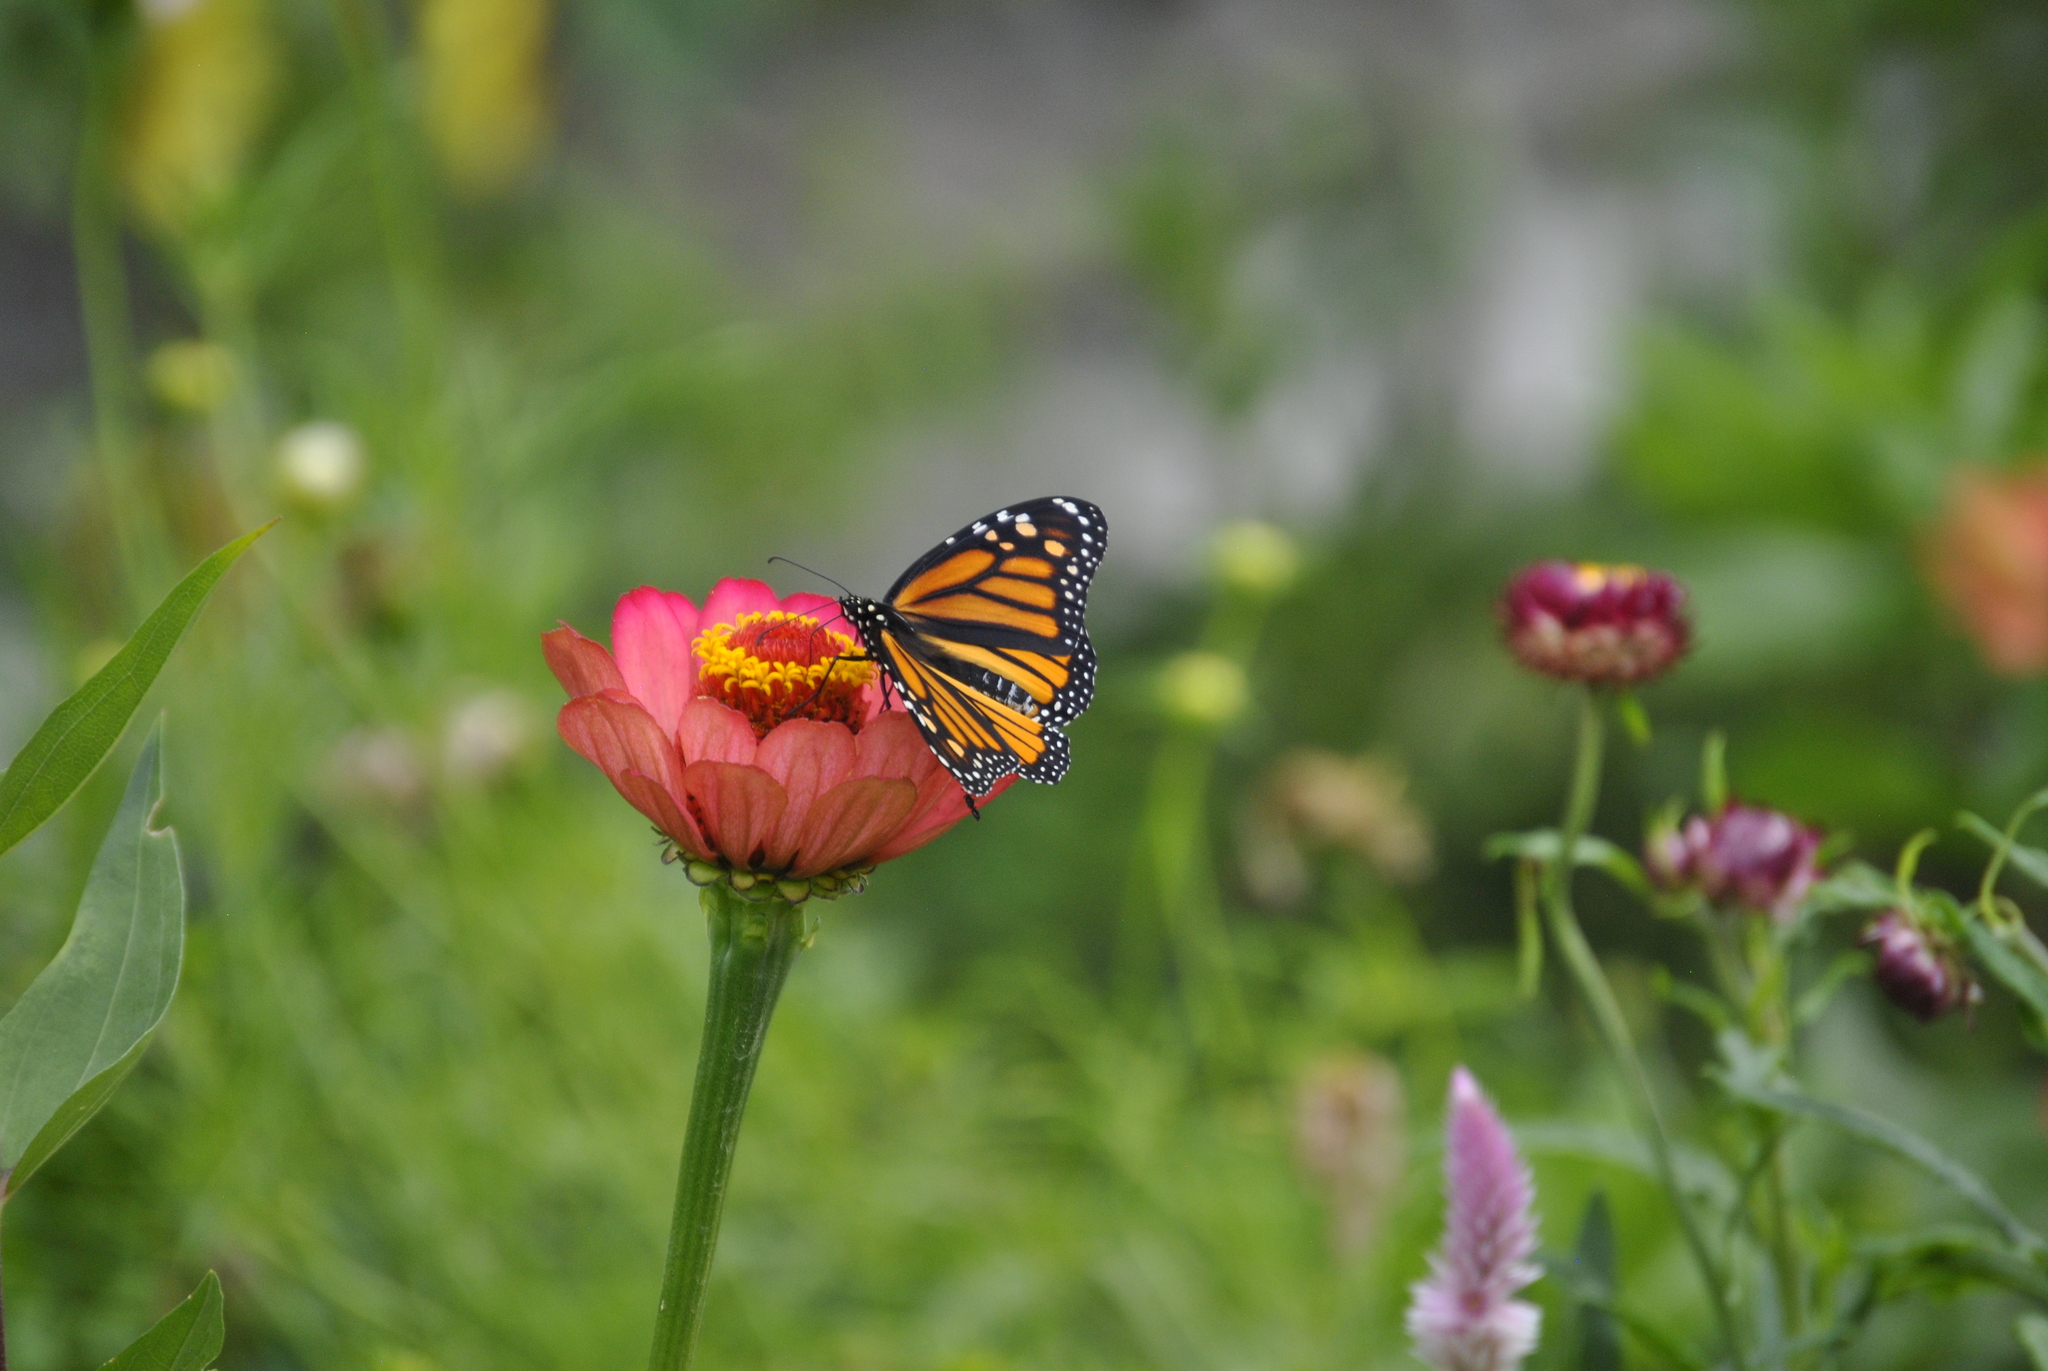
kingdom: Animalia
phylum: Arthropoda
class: Insecta
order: Lepidoptera
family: Nymphalidae
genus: Danaus
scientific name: Danaus plexippus
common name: Monarch
